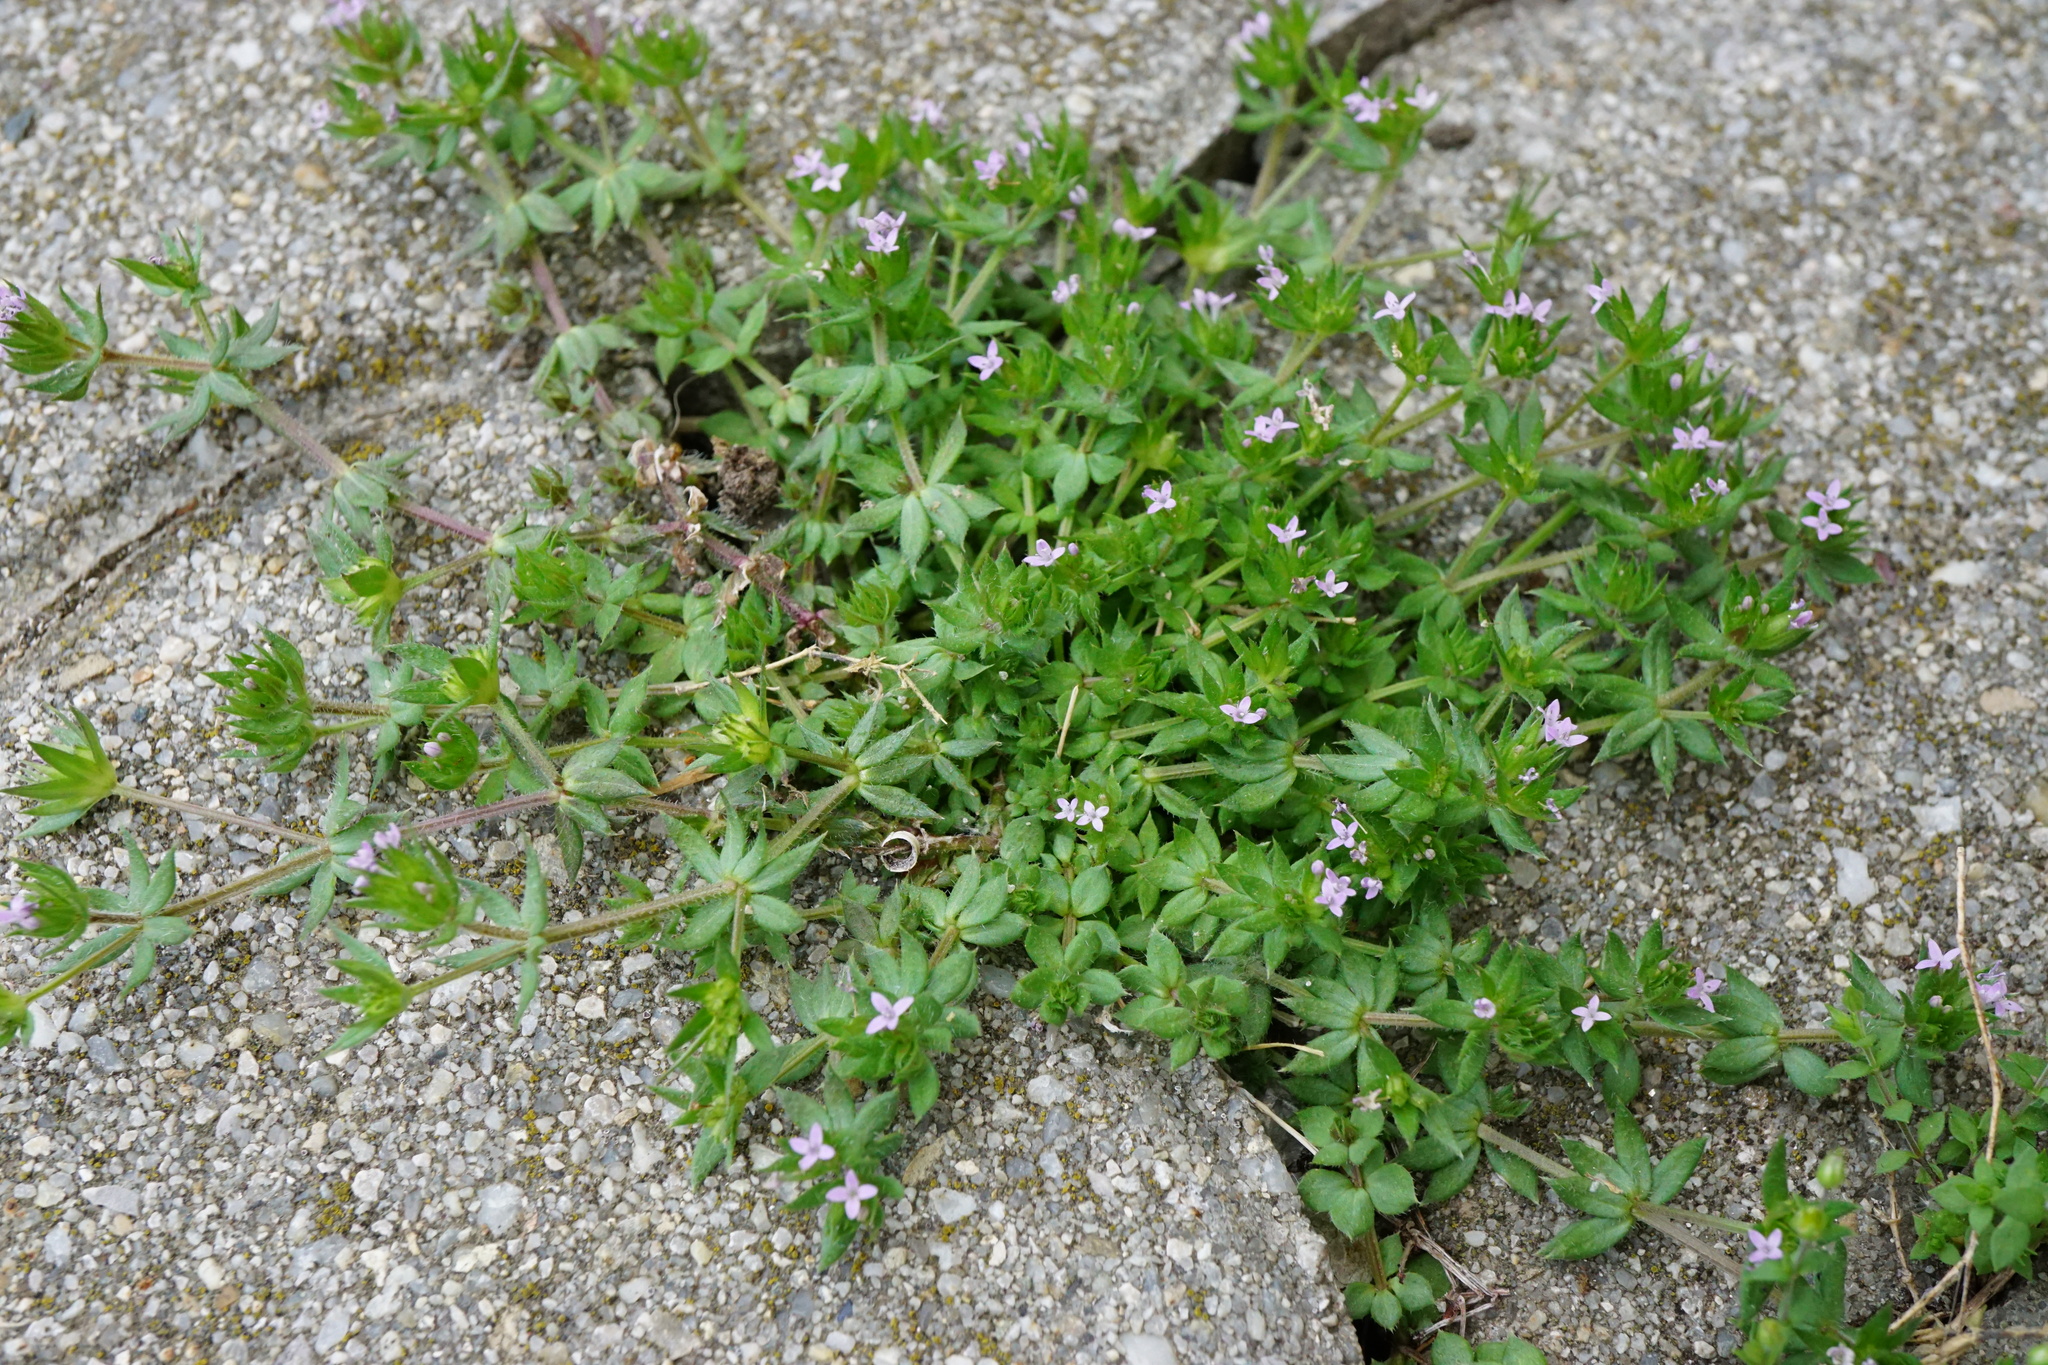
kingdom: Plantae
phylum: Tracheophyta
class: Magnoliopsida
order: Gentianales
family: Rubiaceae
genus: Sherardia
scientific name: Sherardia arvensis
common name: Field madder
